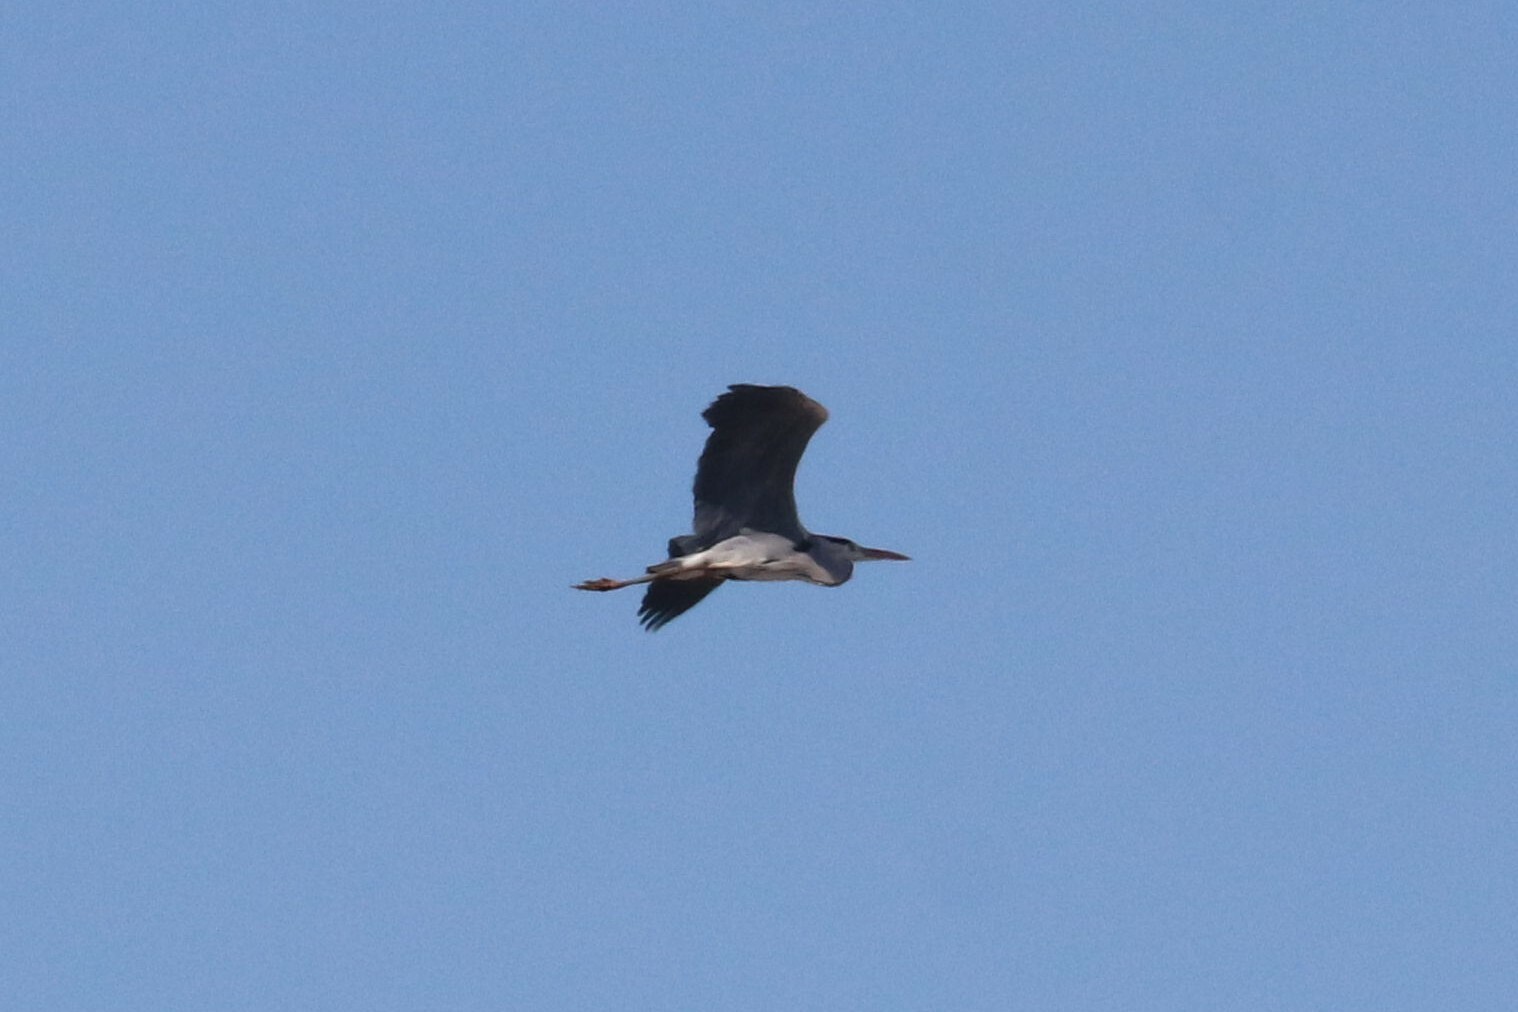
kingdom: Animalia
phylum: Chordata
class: Aves
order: Pelecaniformes
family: Ardeidae
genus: Ardea
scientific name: Ardea cinerea
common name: Grey heron
